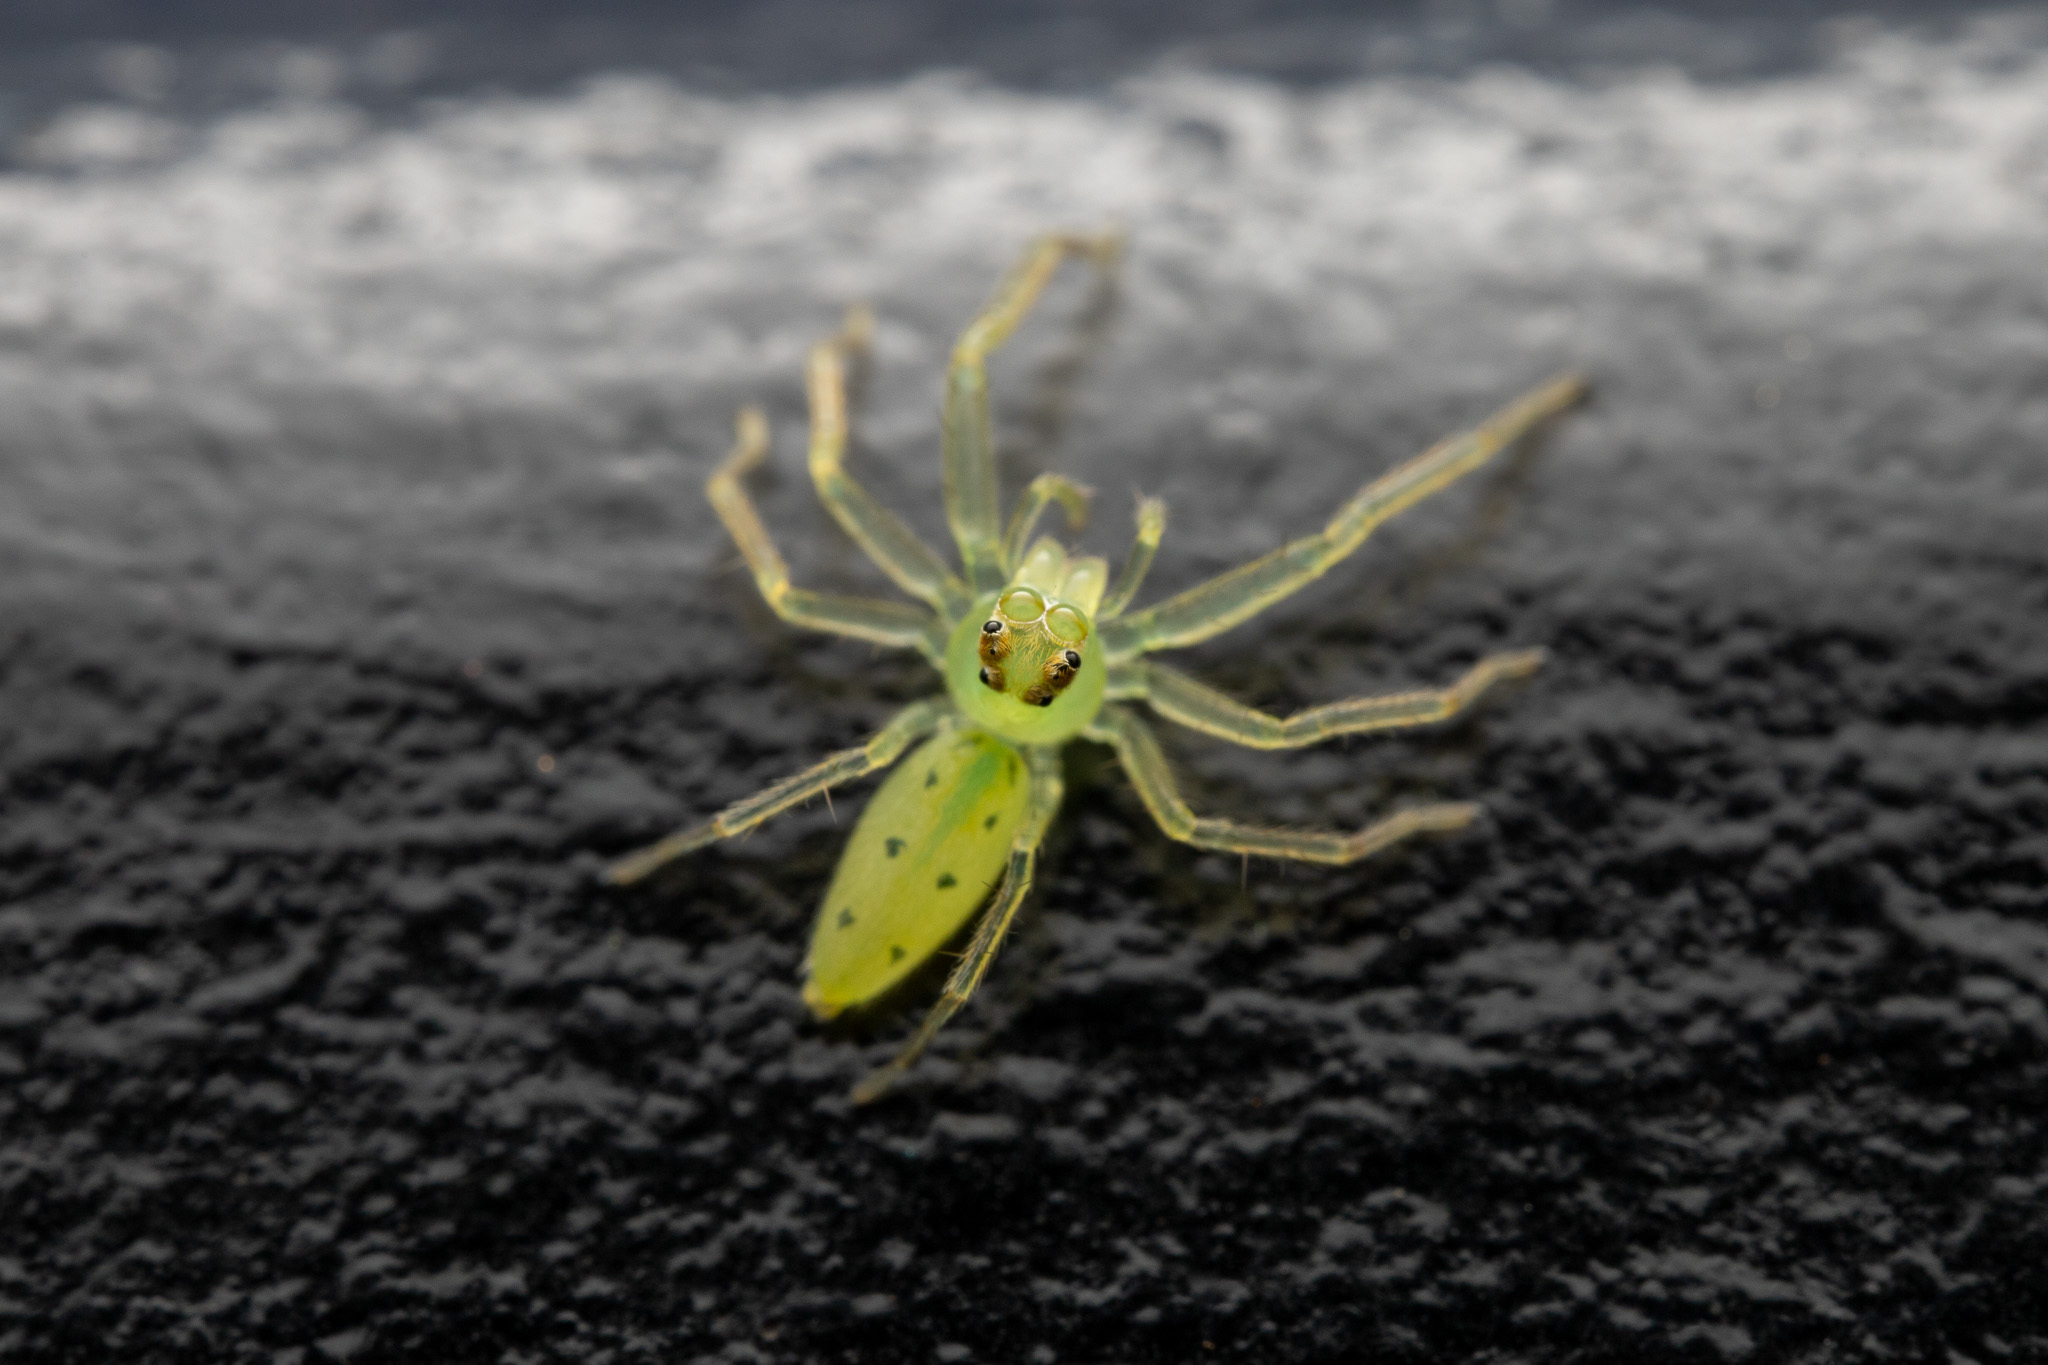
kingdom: Animalia
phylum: Arthropoda
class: Arachnida
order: Araneae
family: Salticidae
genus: Lyssomanes
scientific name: Lyssomanes viridis
